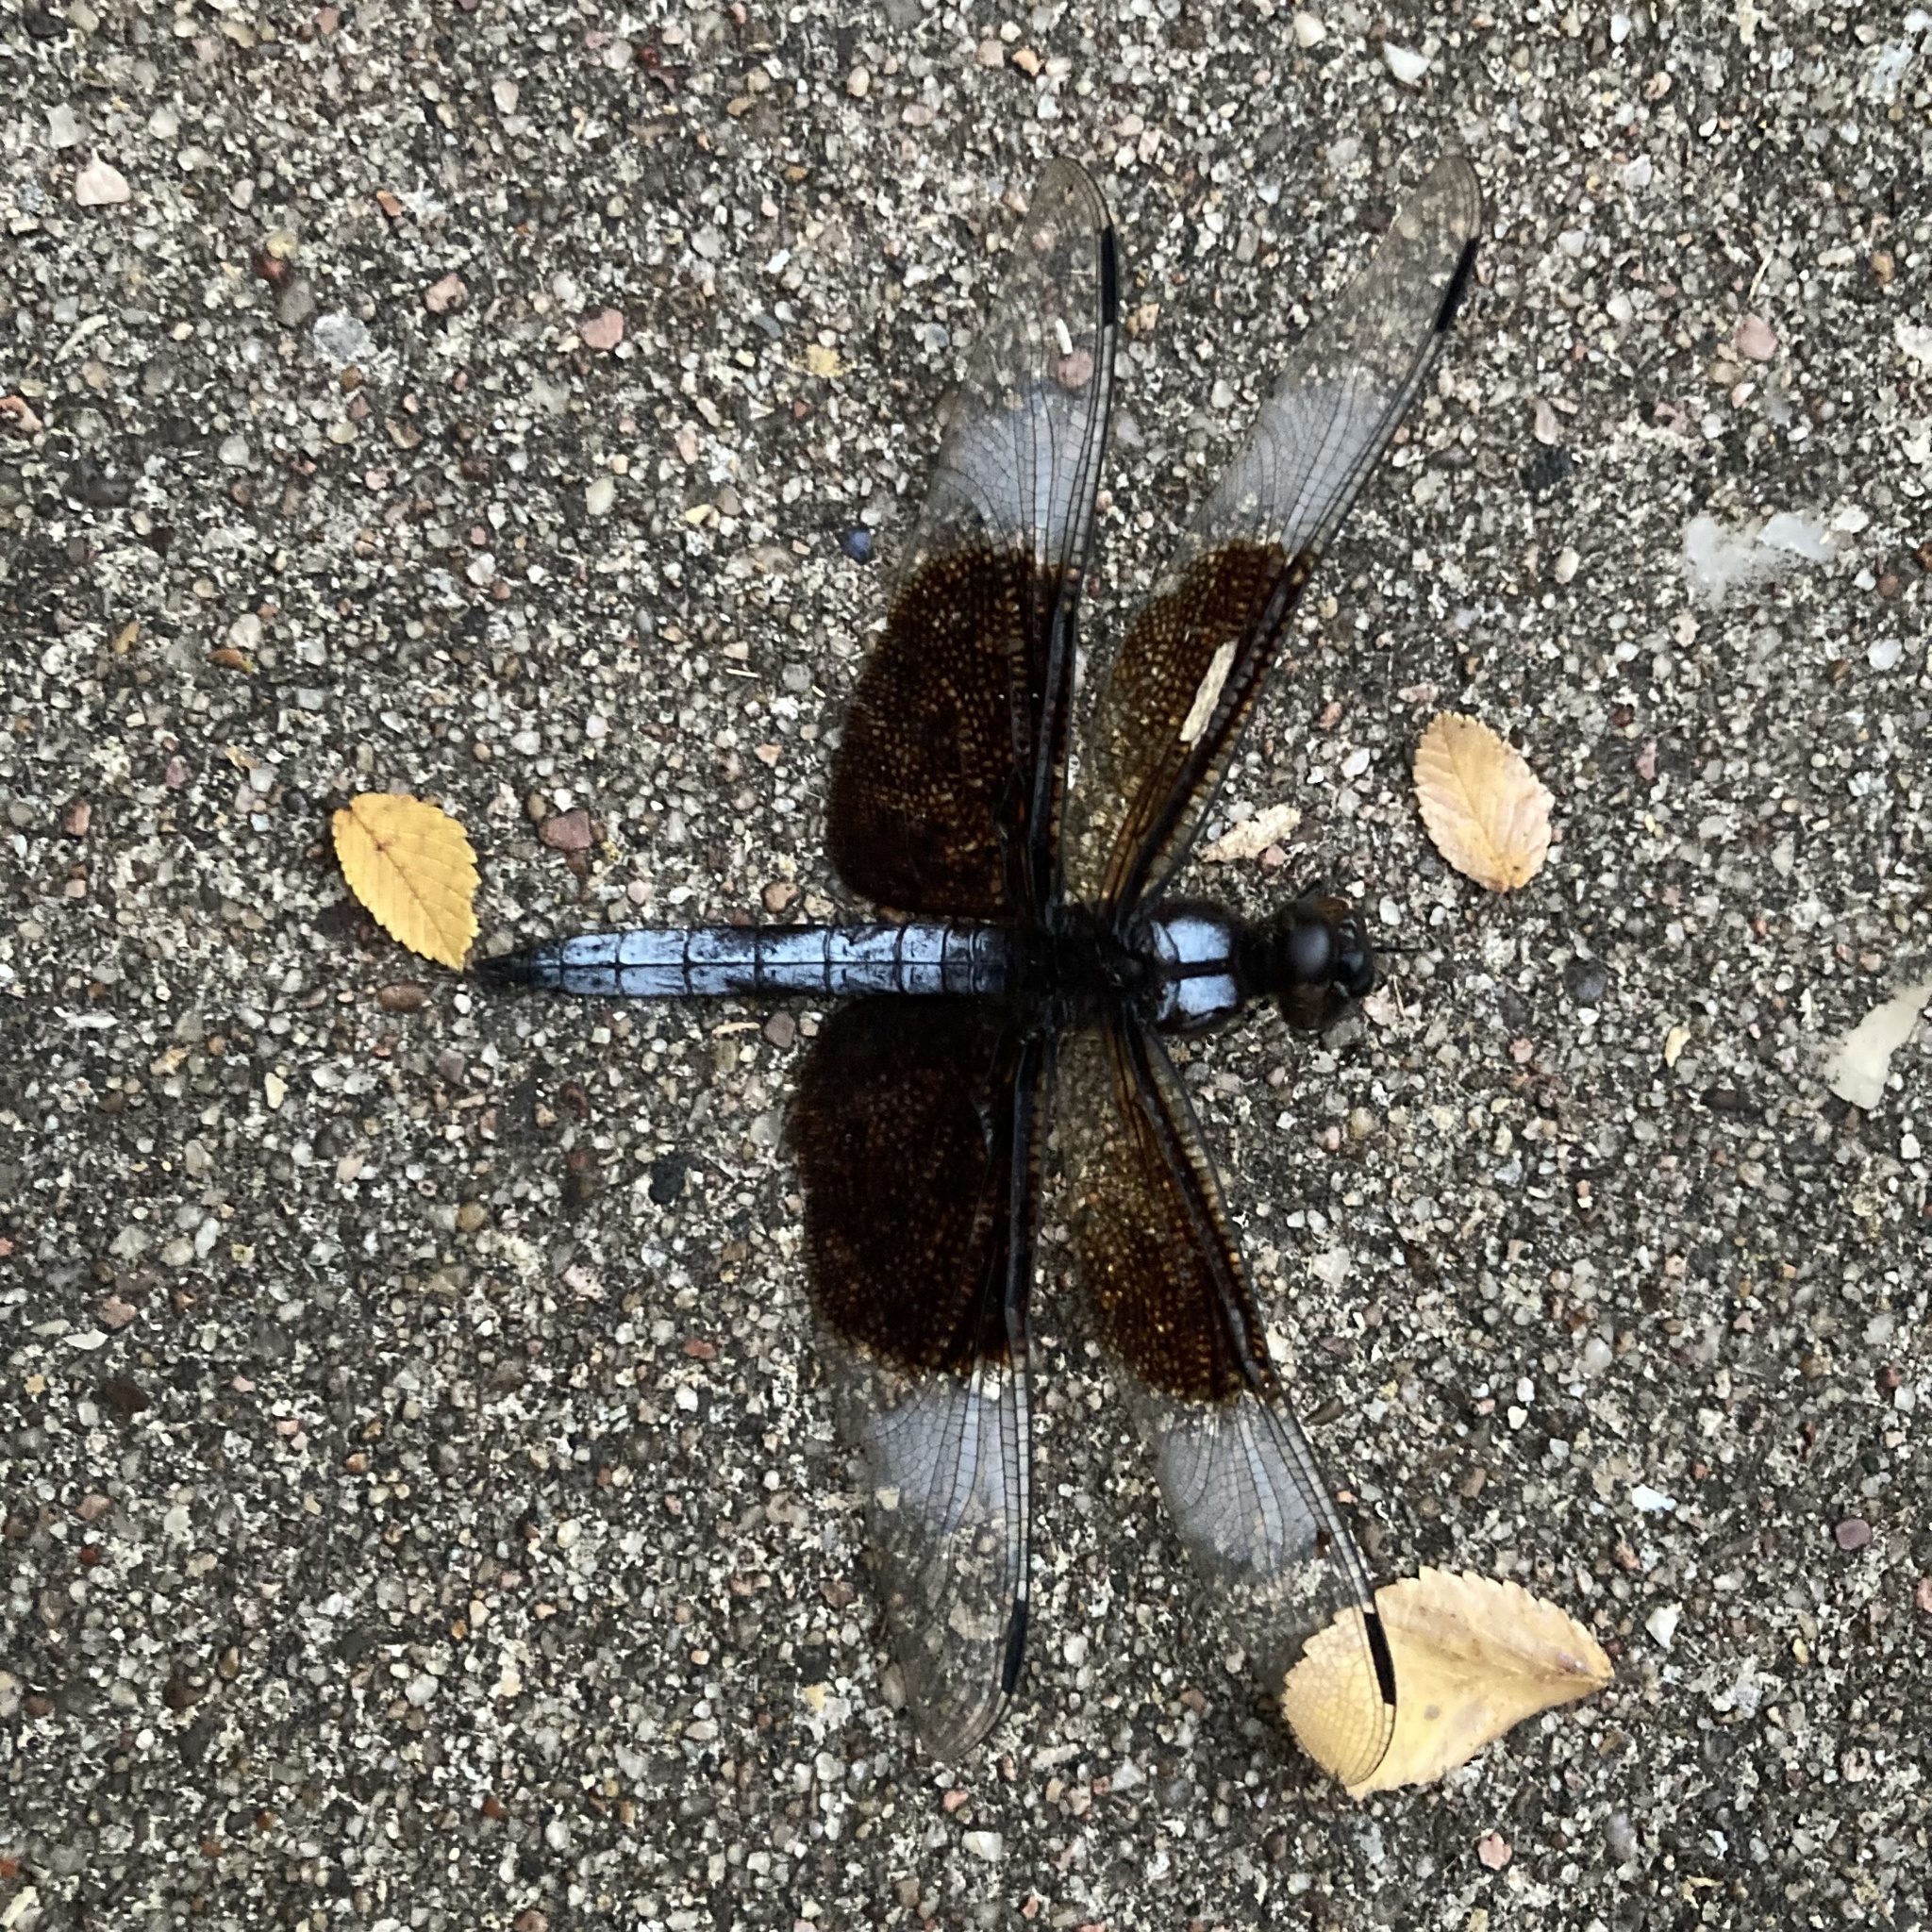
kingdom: Animalia
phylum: Arthropoda
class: Insecta
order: Odonata
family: Libellulidae
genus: Libellula
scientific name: Libellula luctuosa
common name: Widow skimmer
